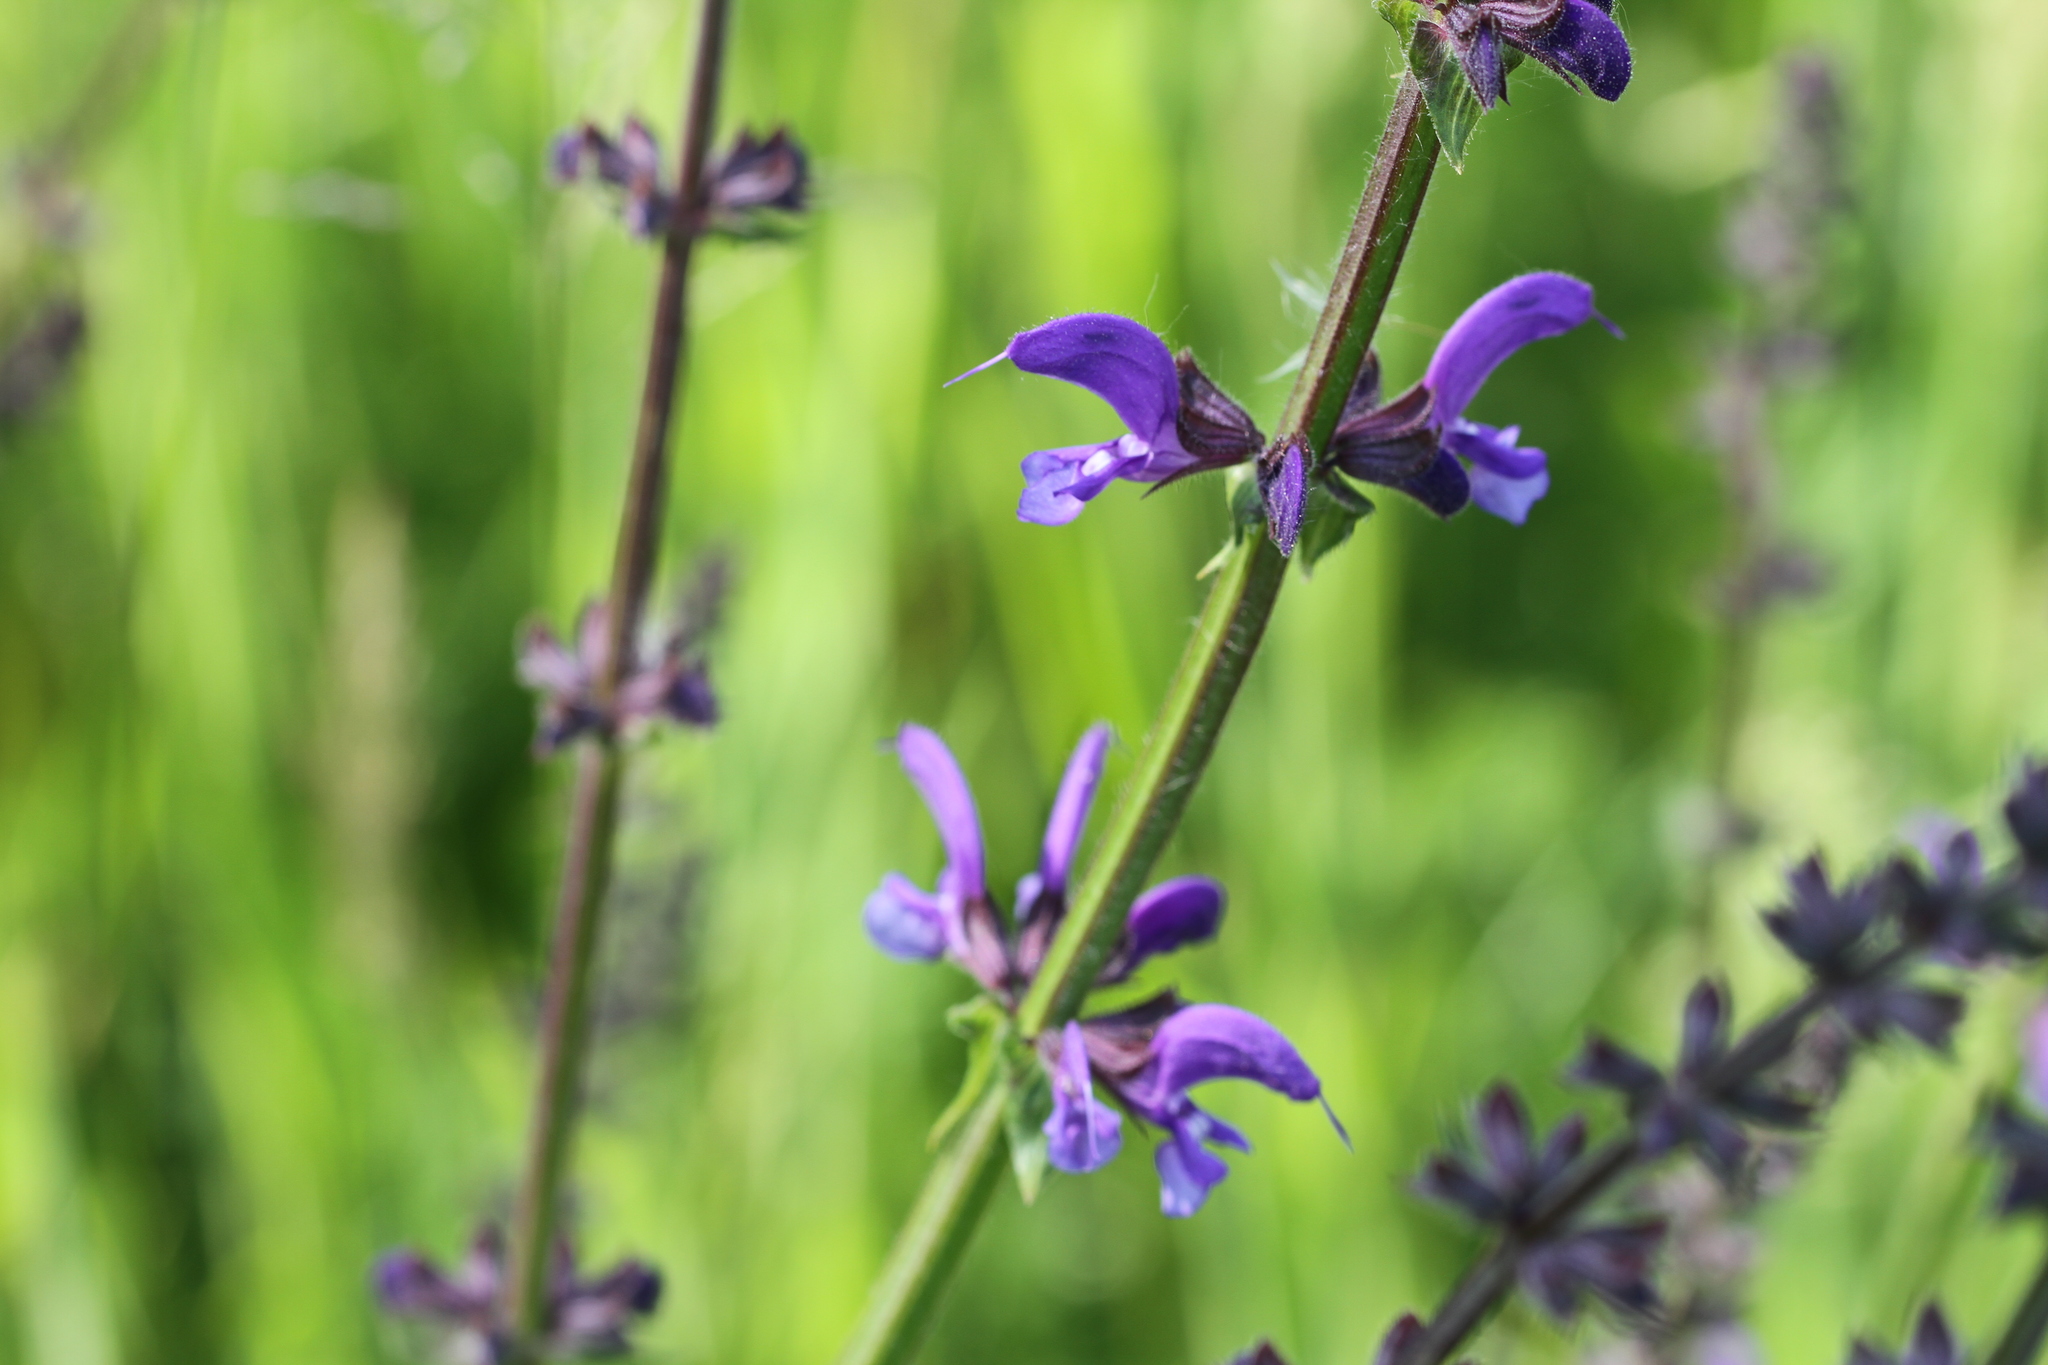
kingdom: Plantae
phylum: Tracheophyta
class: Magnoliopsida
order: Lamiales
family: Lamiaceae
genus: Salvia
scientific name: Salvia pratensis
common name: Meadow sage
